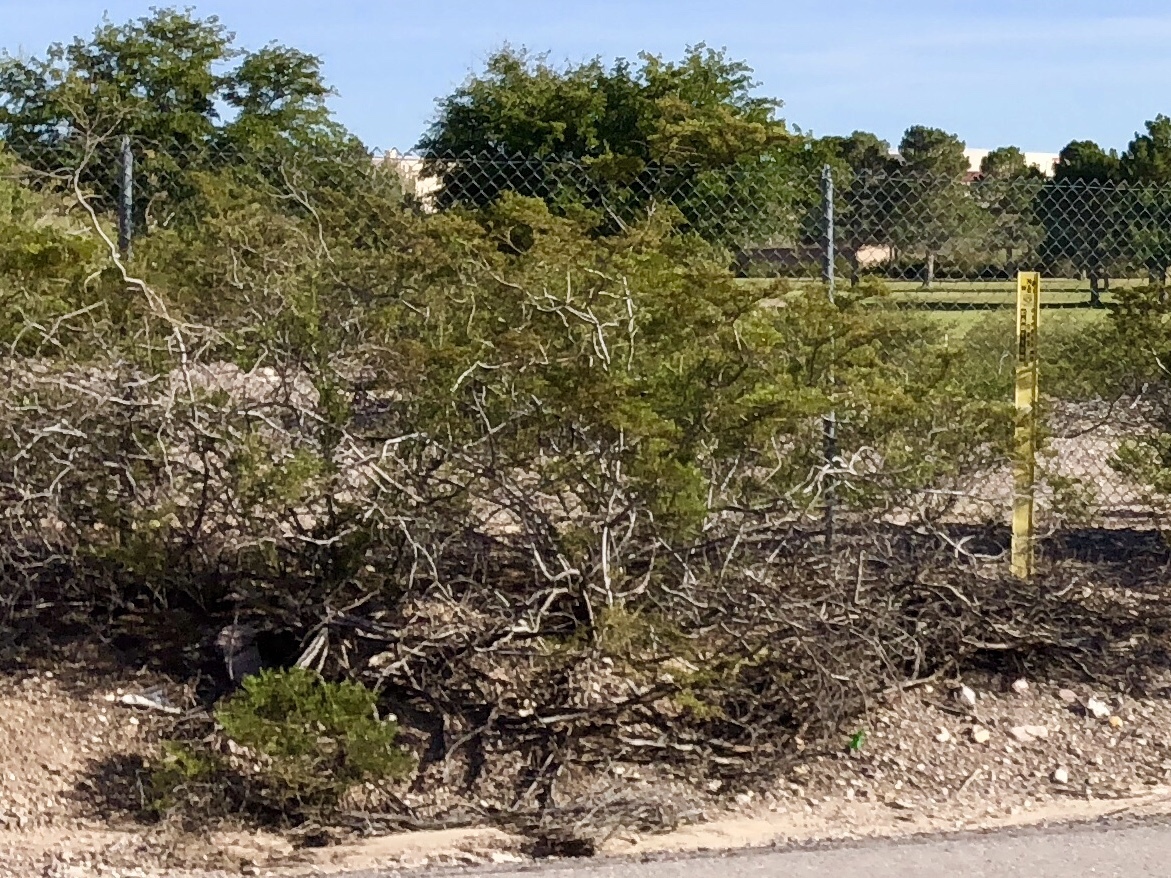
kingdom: Plantae
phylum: Tracheophyta
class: Magnoliopsida
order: Zygophyllales
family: Zygophyllaceae
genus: Larrea
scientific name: Larrea tridentata
